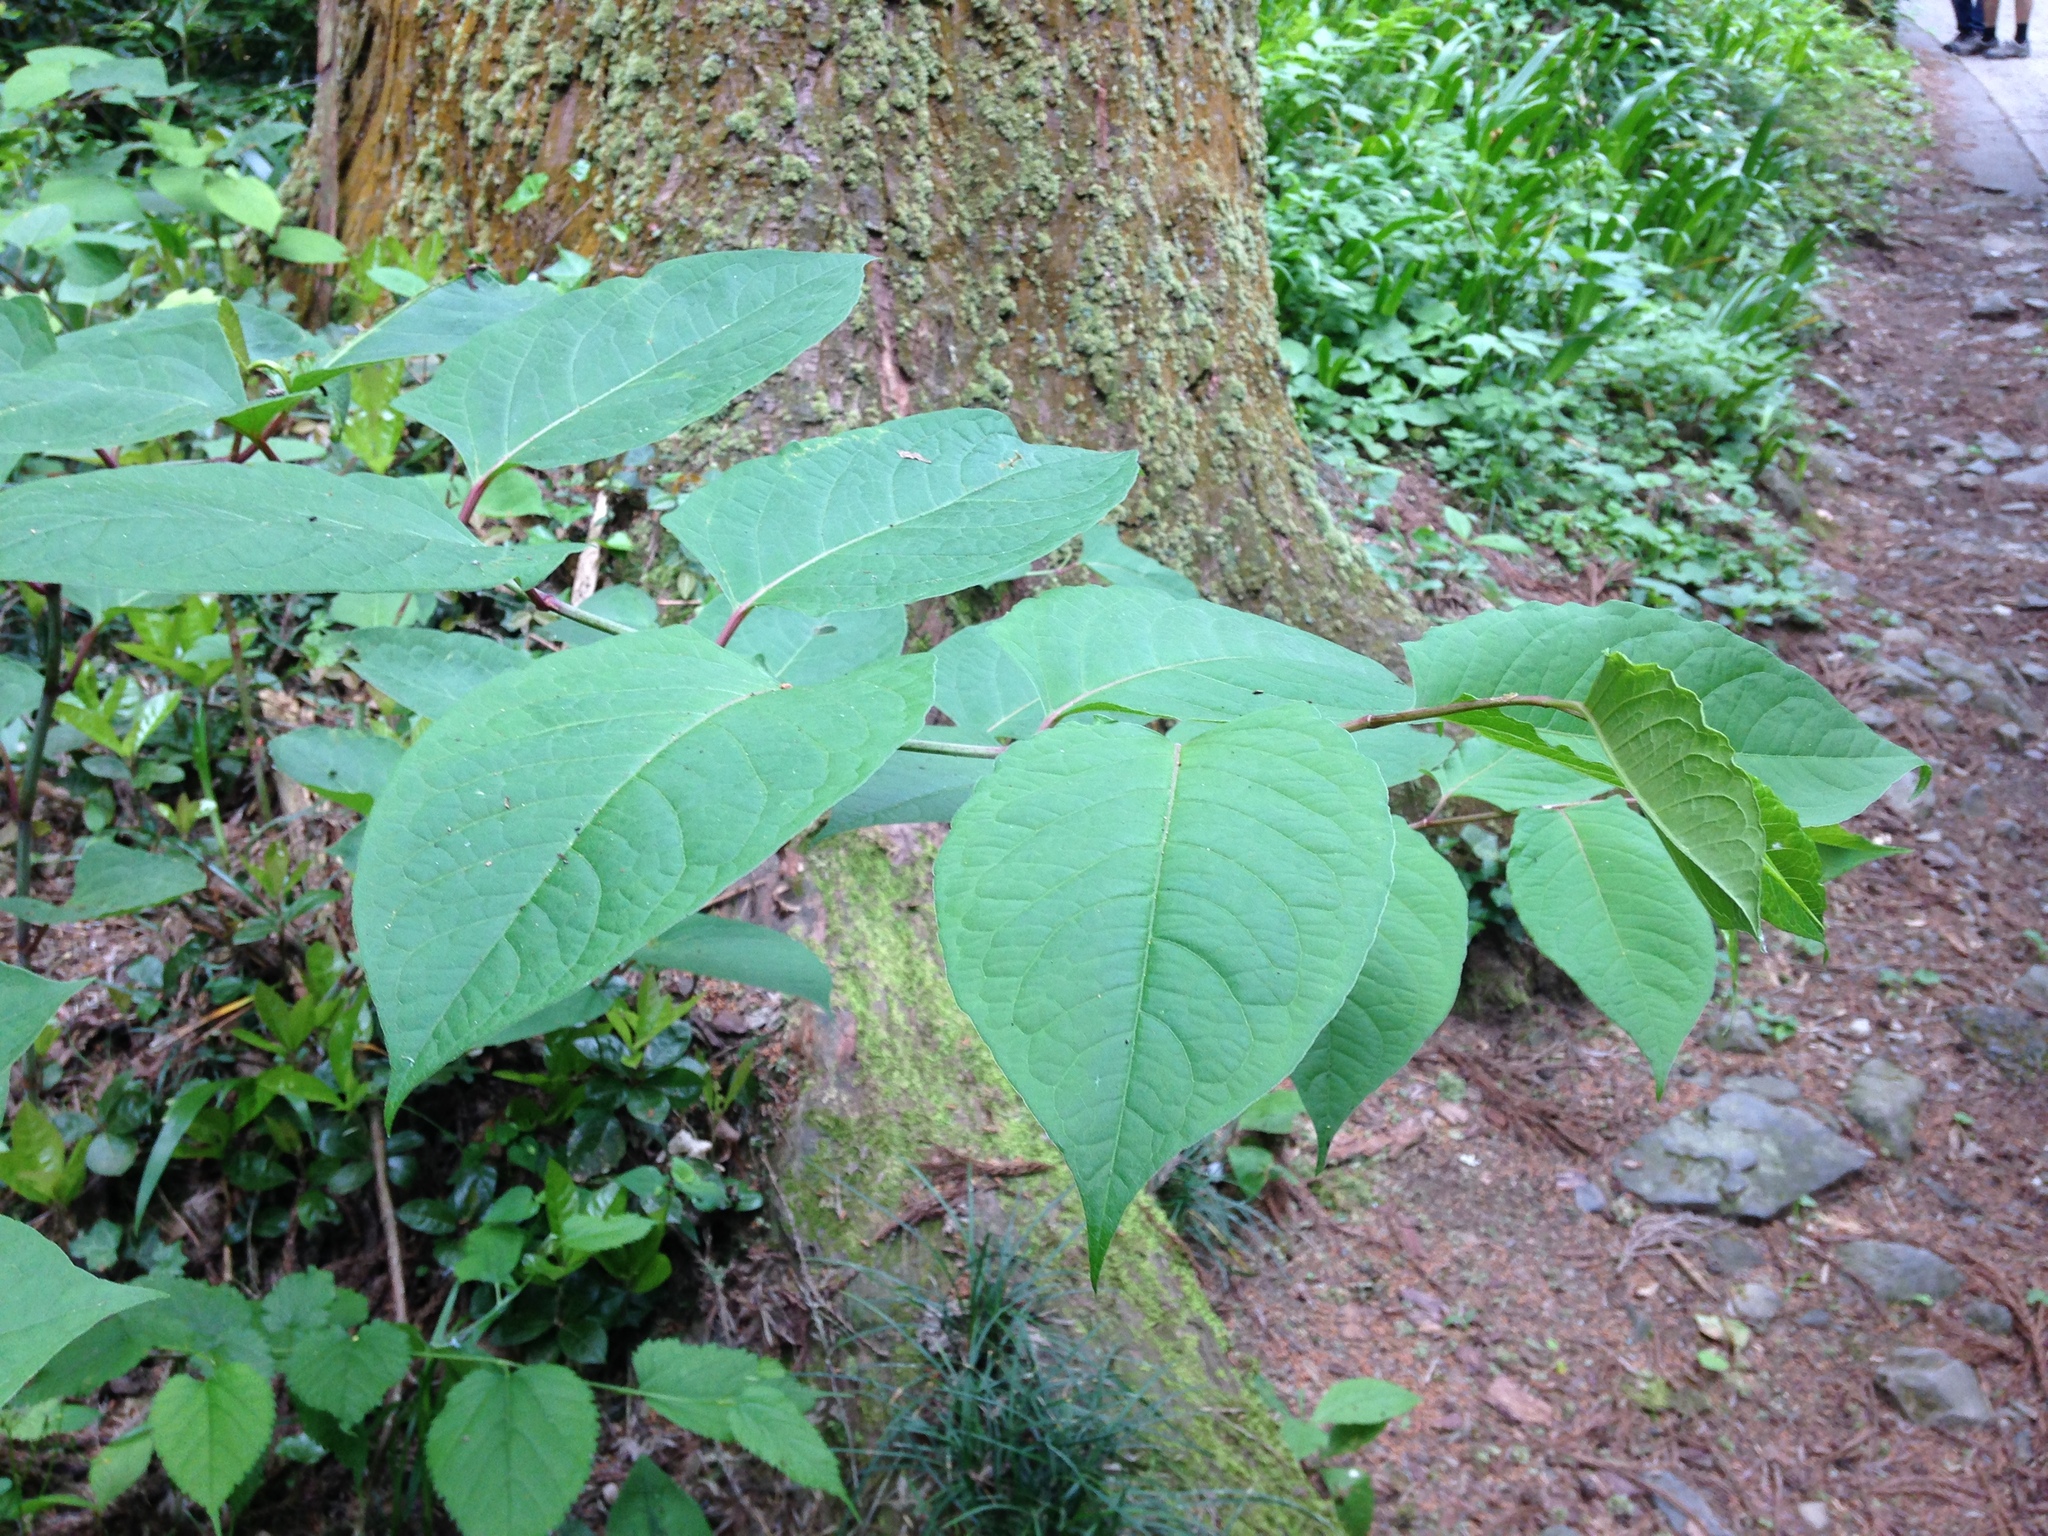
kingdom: Plantae
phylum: Tracheophyta
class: Magnoliopsida
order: Caryophyllales
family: Polygonaceae
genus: Reynoutria
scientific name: Reynoutria japonica
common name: Japanese knotweed
